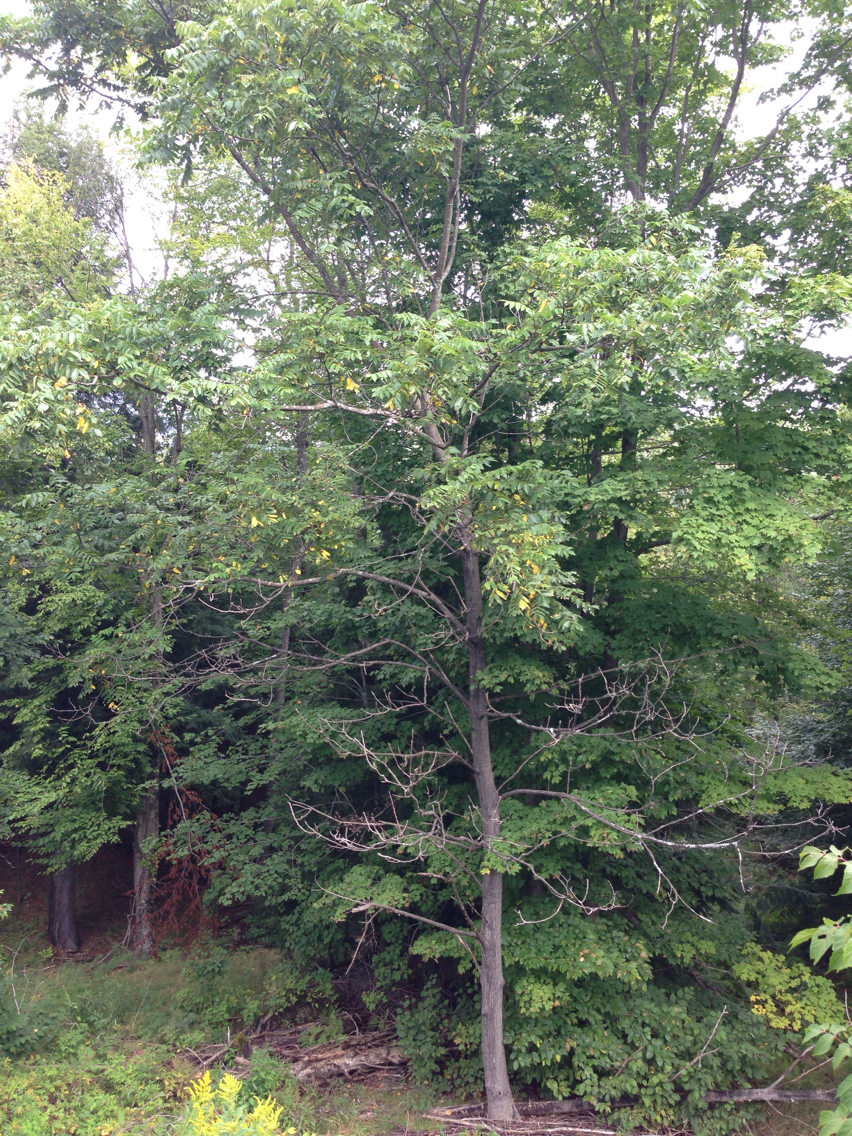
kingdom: Plantae
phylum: Tracheophyta
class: Magnoliopsida
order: Fagales
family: Juglandaceae
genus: Juglans
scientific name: Juglans nigra
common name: Black walnut
